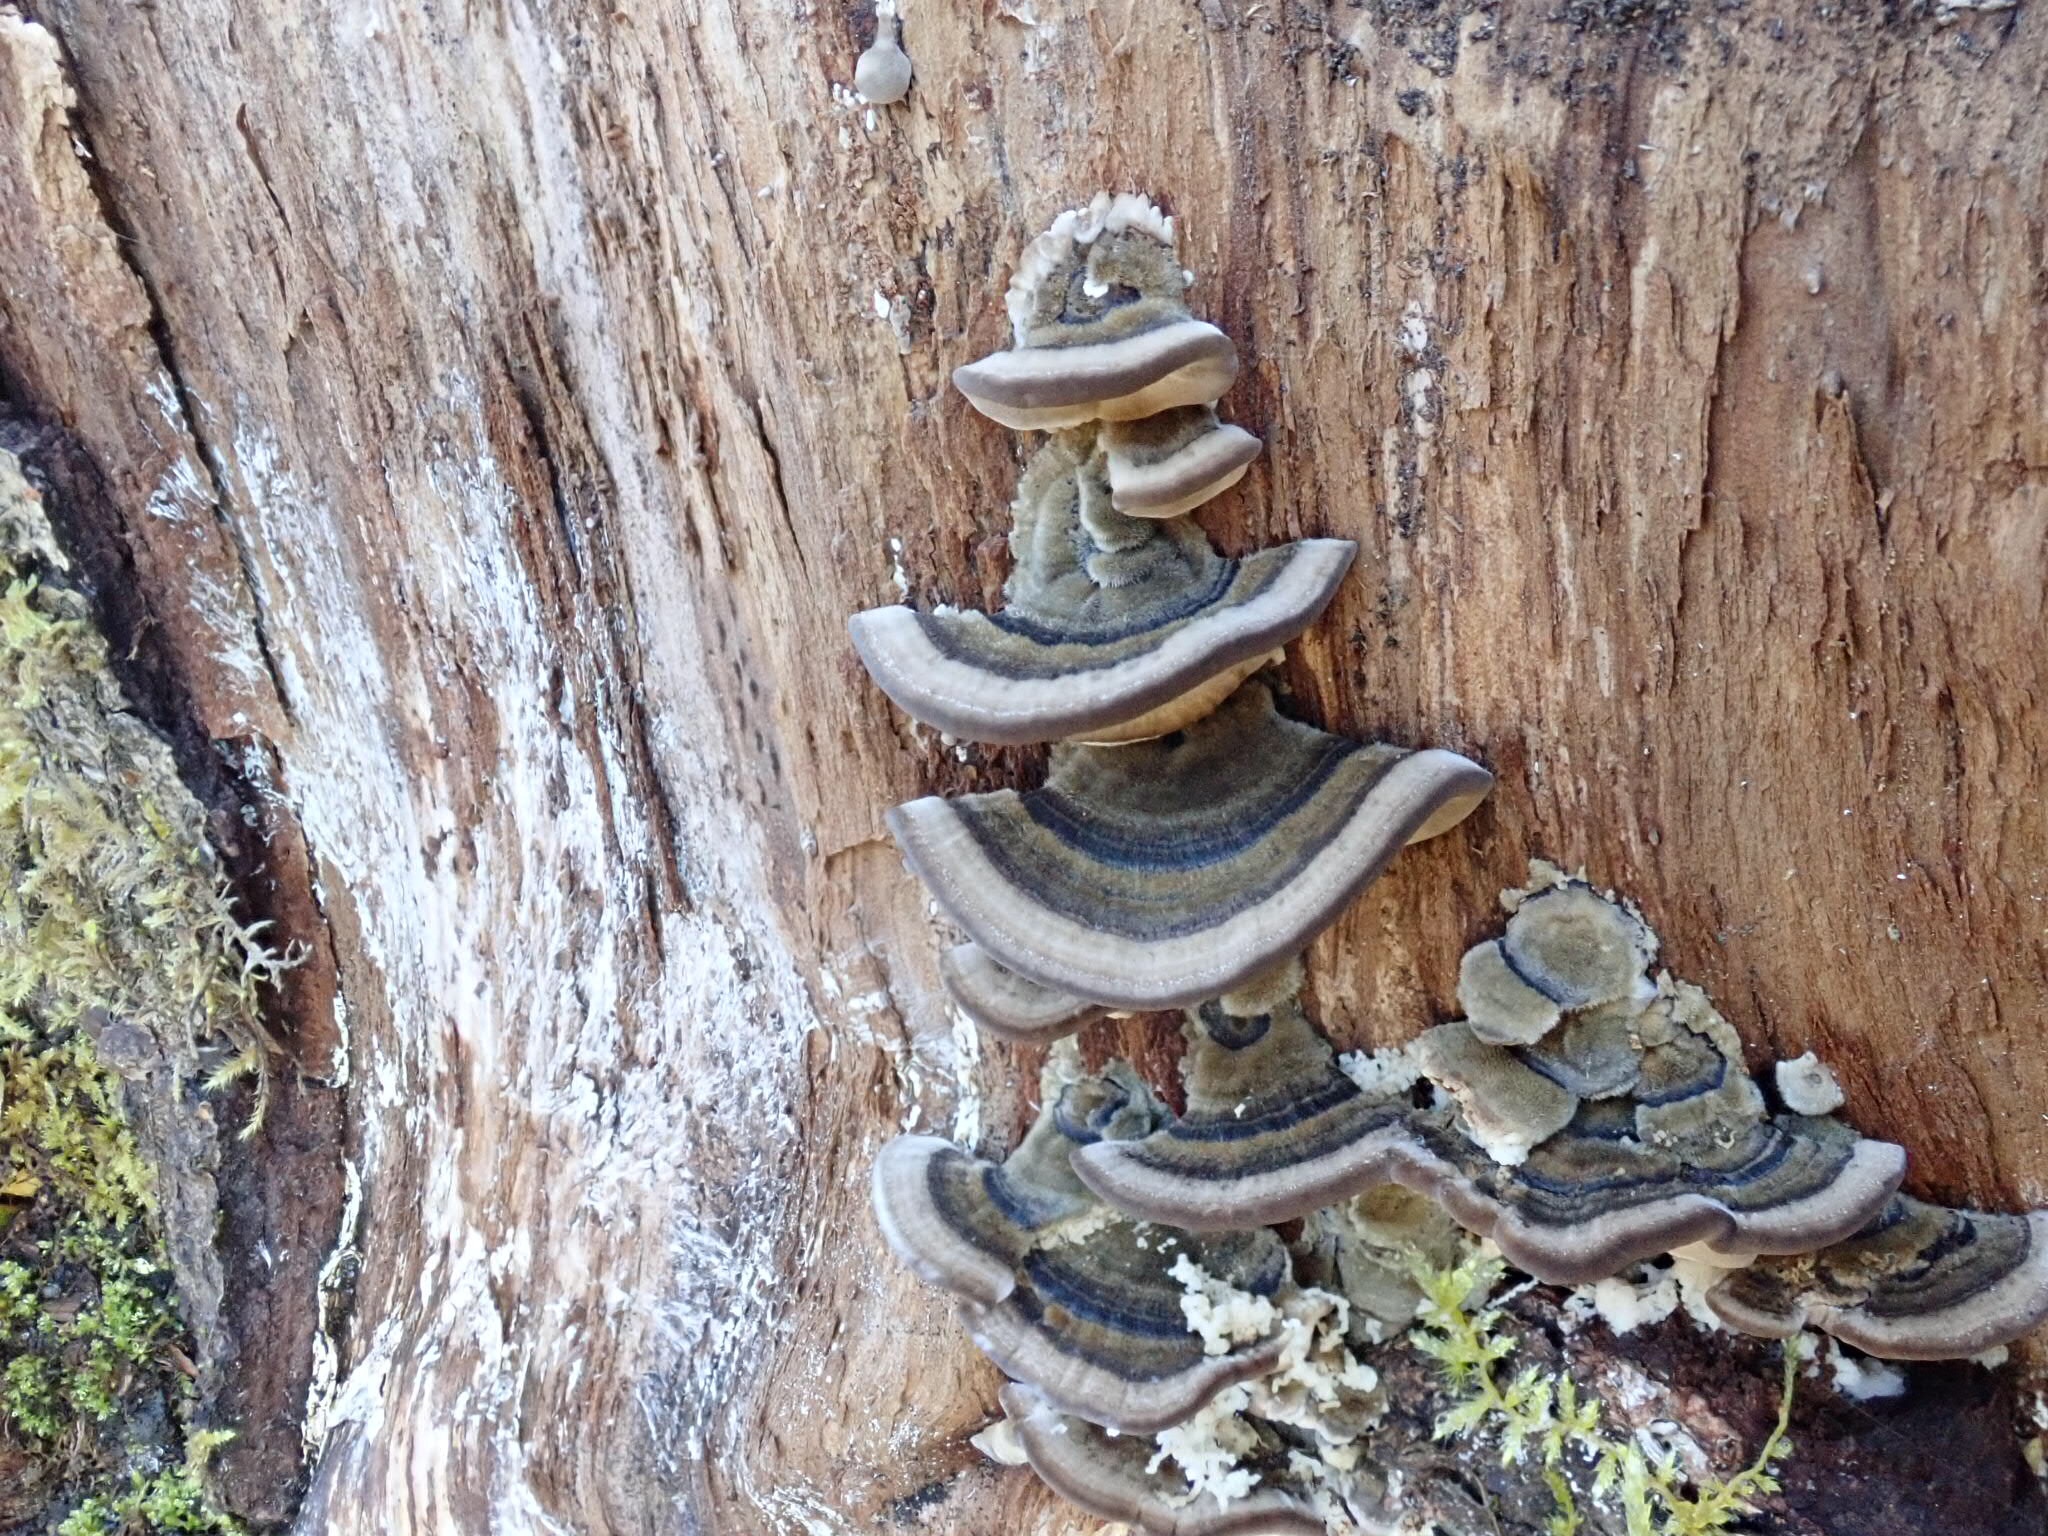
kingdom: Fungi
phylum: Basidiomycota
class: Agaricomycetes
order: Polyporales
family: Polyporaceae
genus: Trametes
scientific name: Trametes versicolor
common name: Turkeytail
